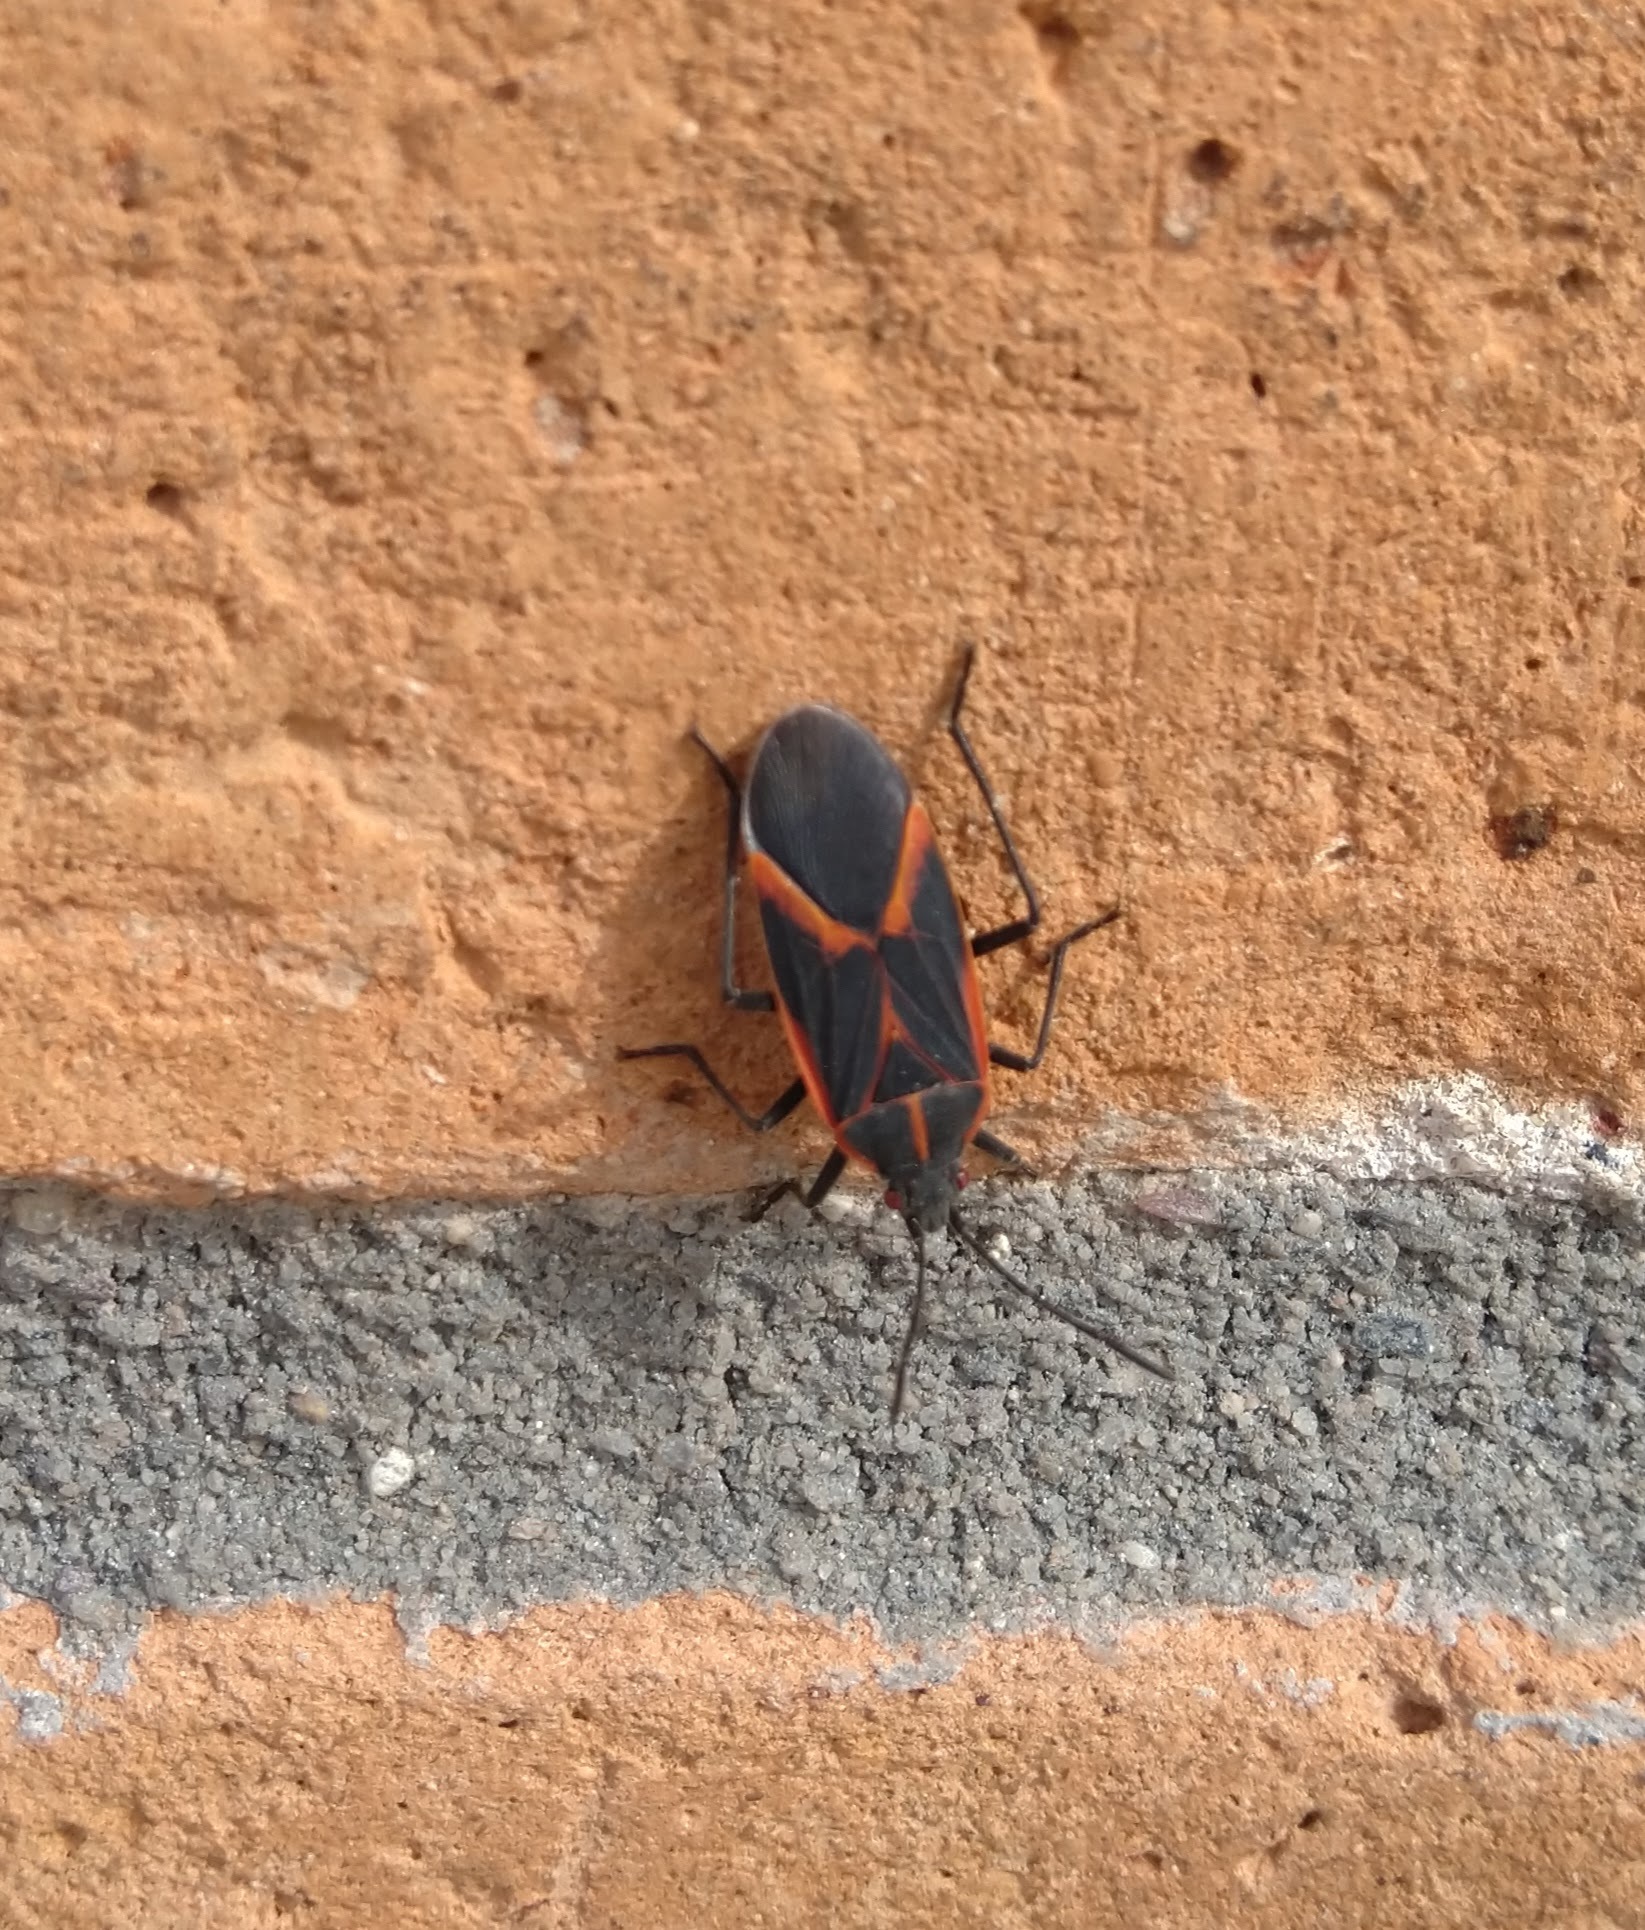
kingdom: Animalia
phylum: Arthropoda
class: Insecta
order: Hemiptera
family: Rhopalidae
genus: Boisea
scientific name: Boisea trivittata
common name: Boxelder bug
